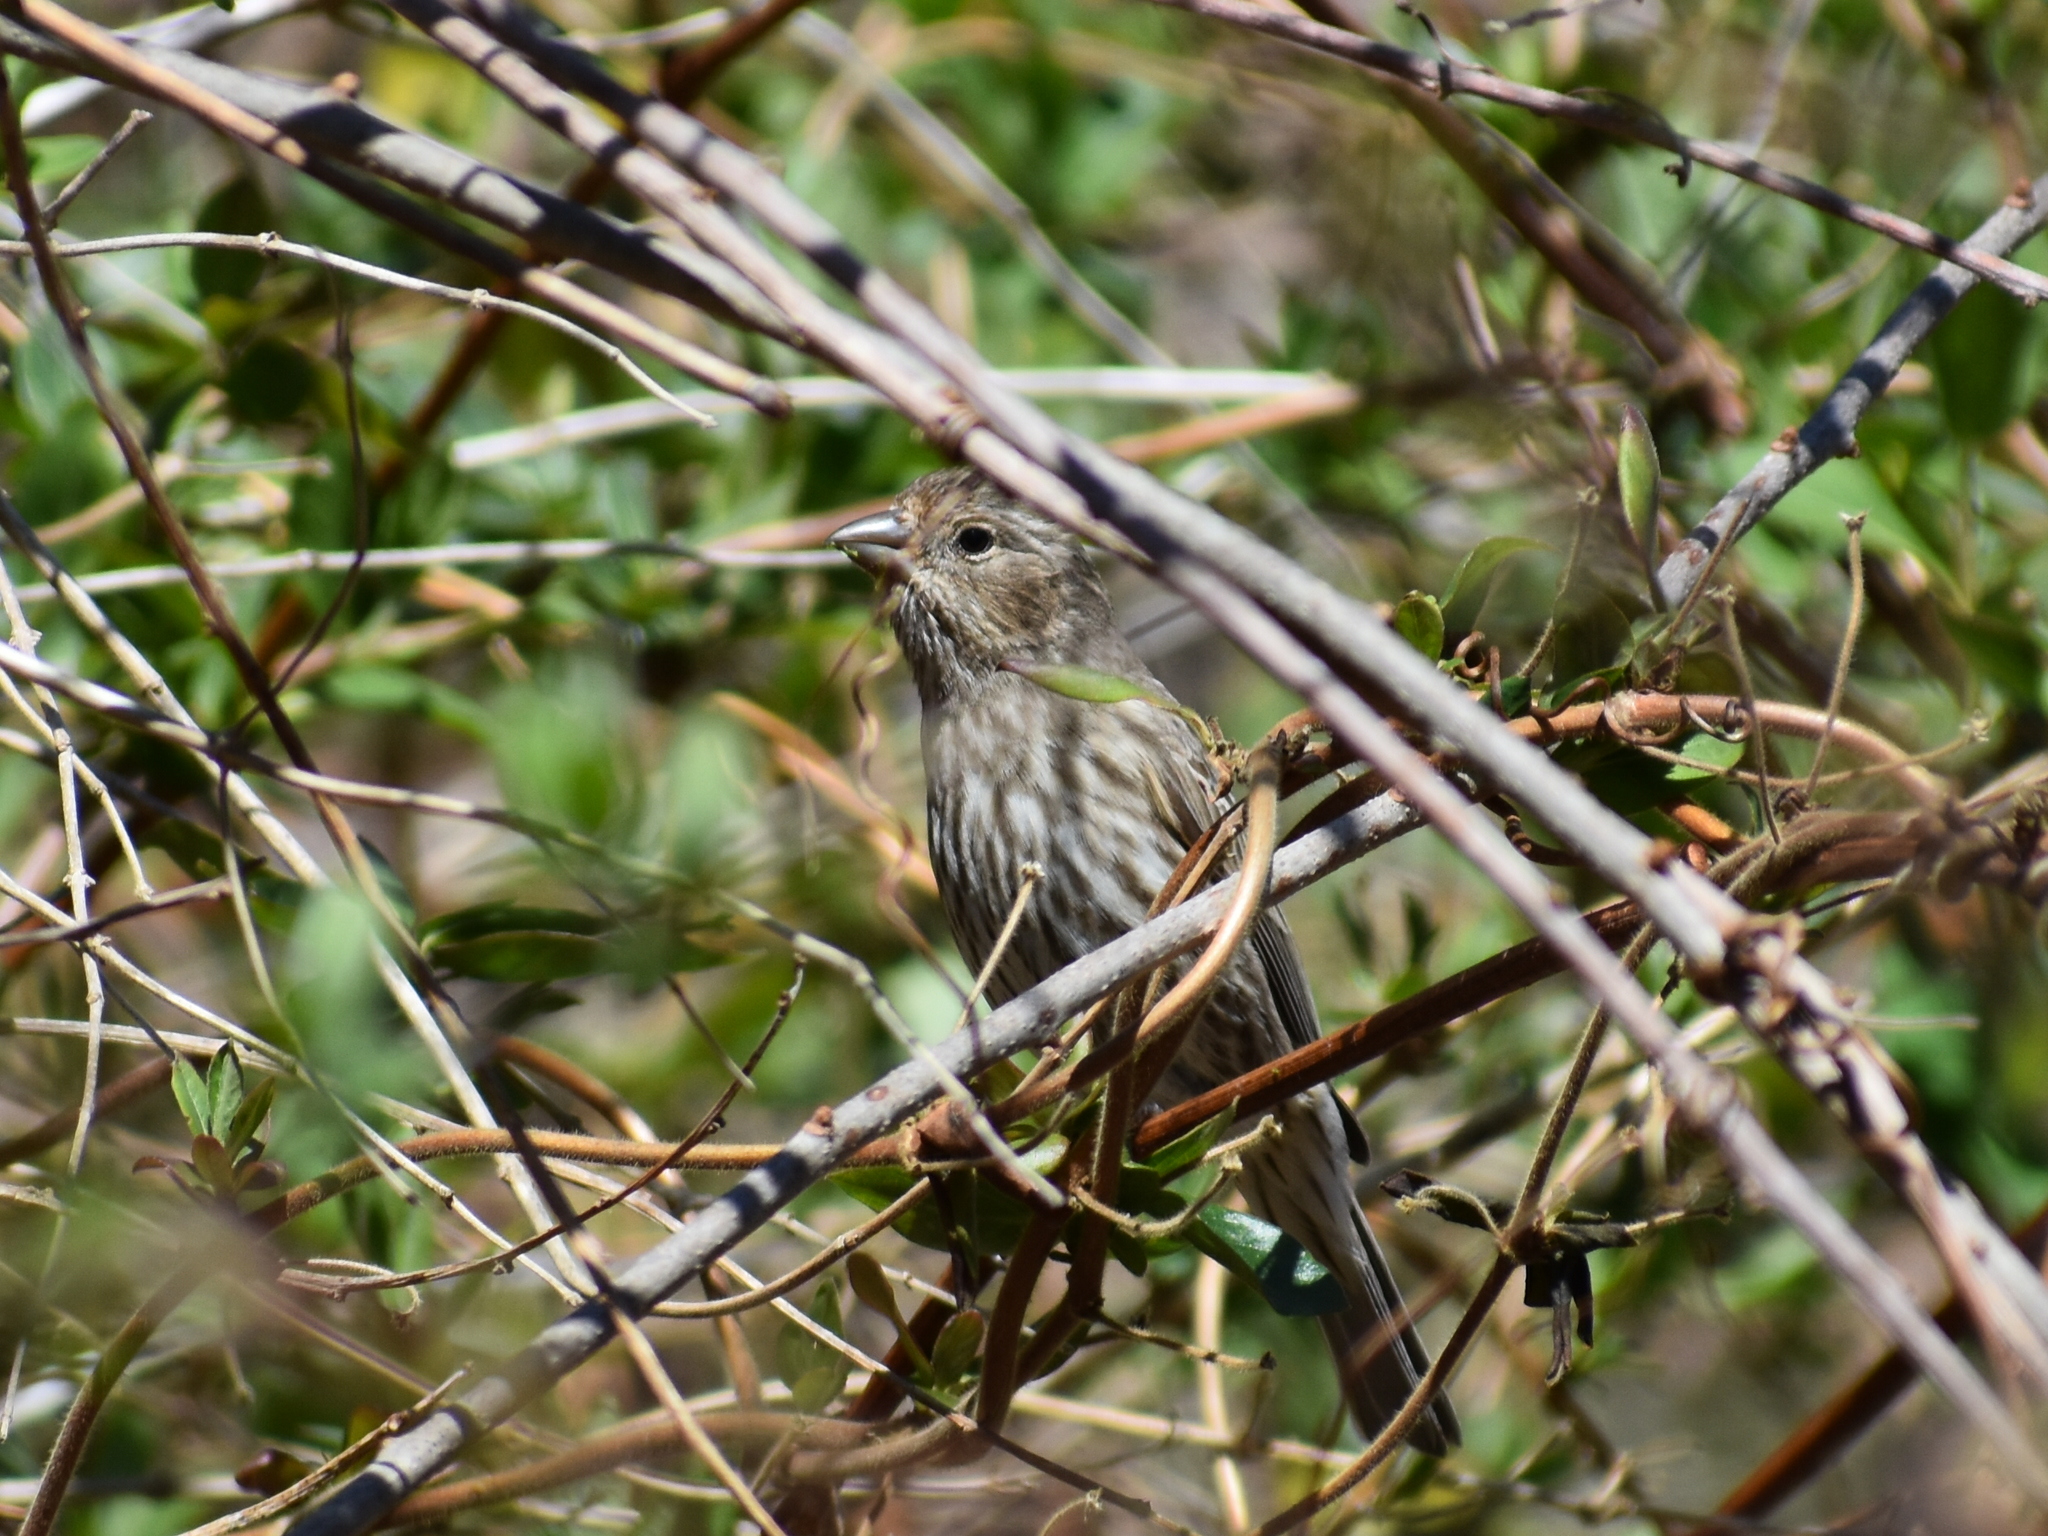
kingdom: Animalia
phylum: Chordata
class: Aves
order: Passeriformes
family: Fringillidae
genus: Haemorhous
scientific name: Haemorhous mexicanus
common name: House finch
